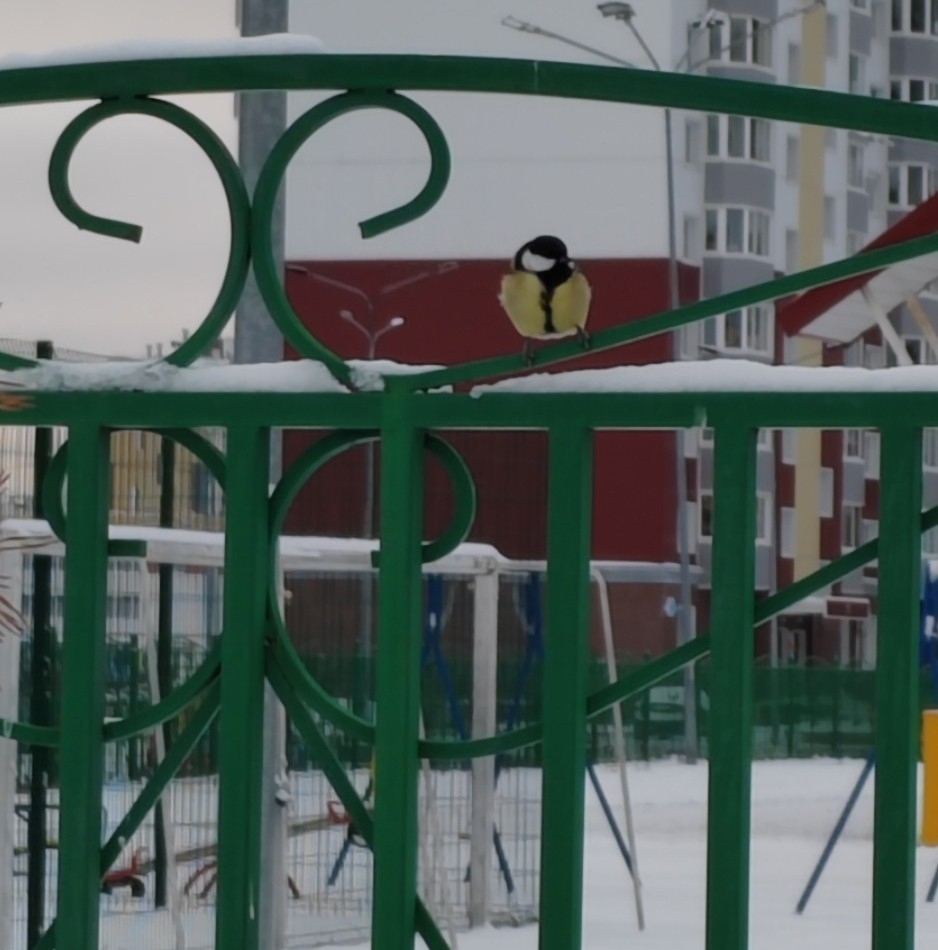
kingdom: Animalia
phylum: Chordata
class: Aves
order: Passeriformes
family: Paridae
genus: Parus
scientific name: Parus major
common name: Great tit
